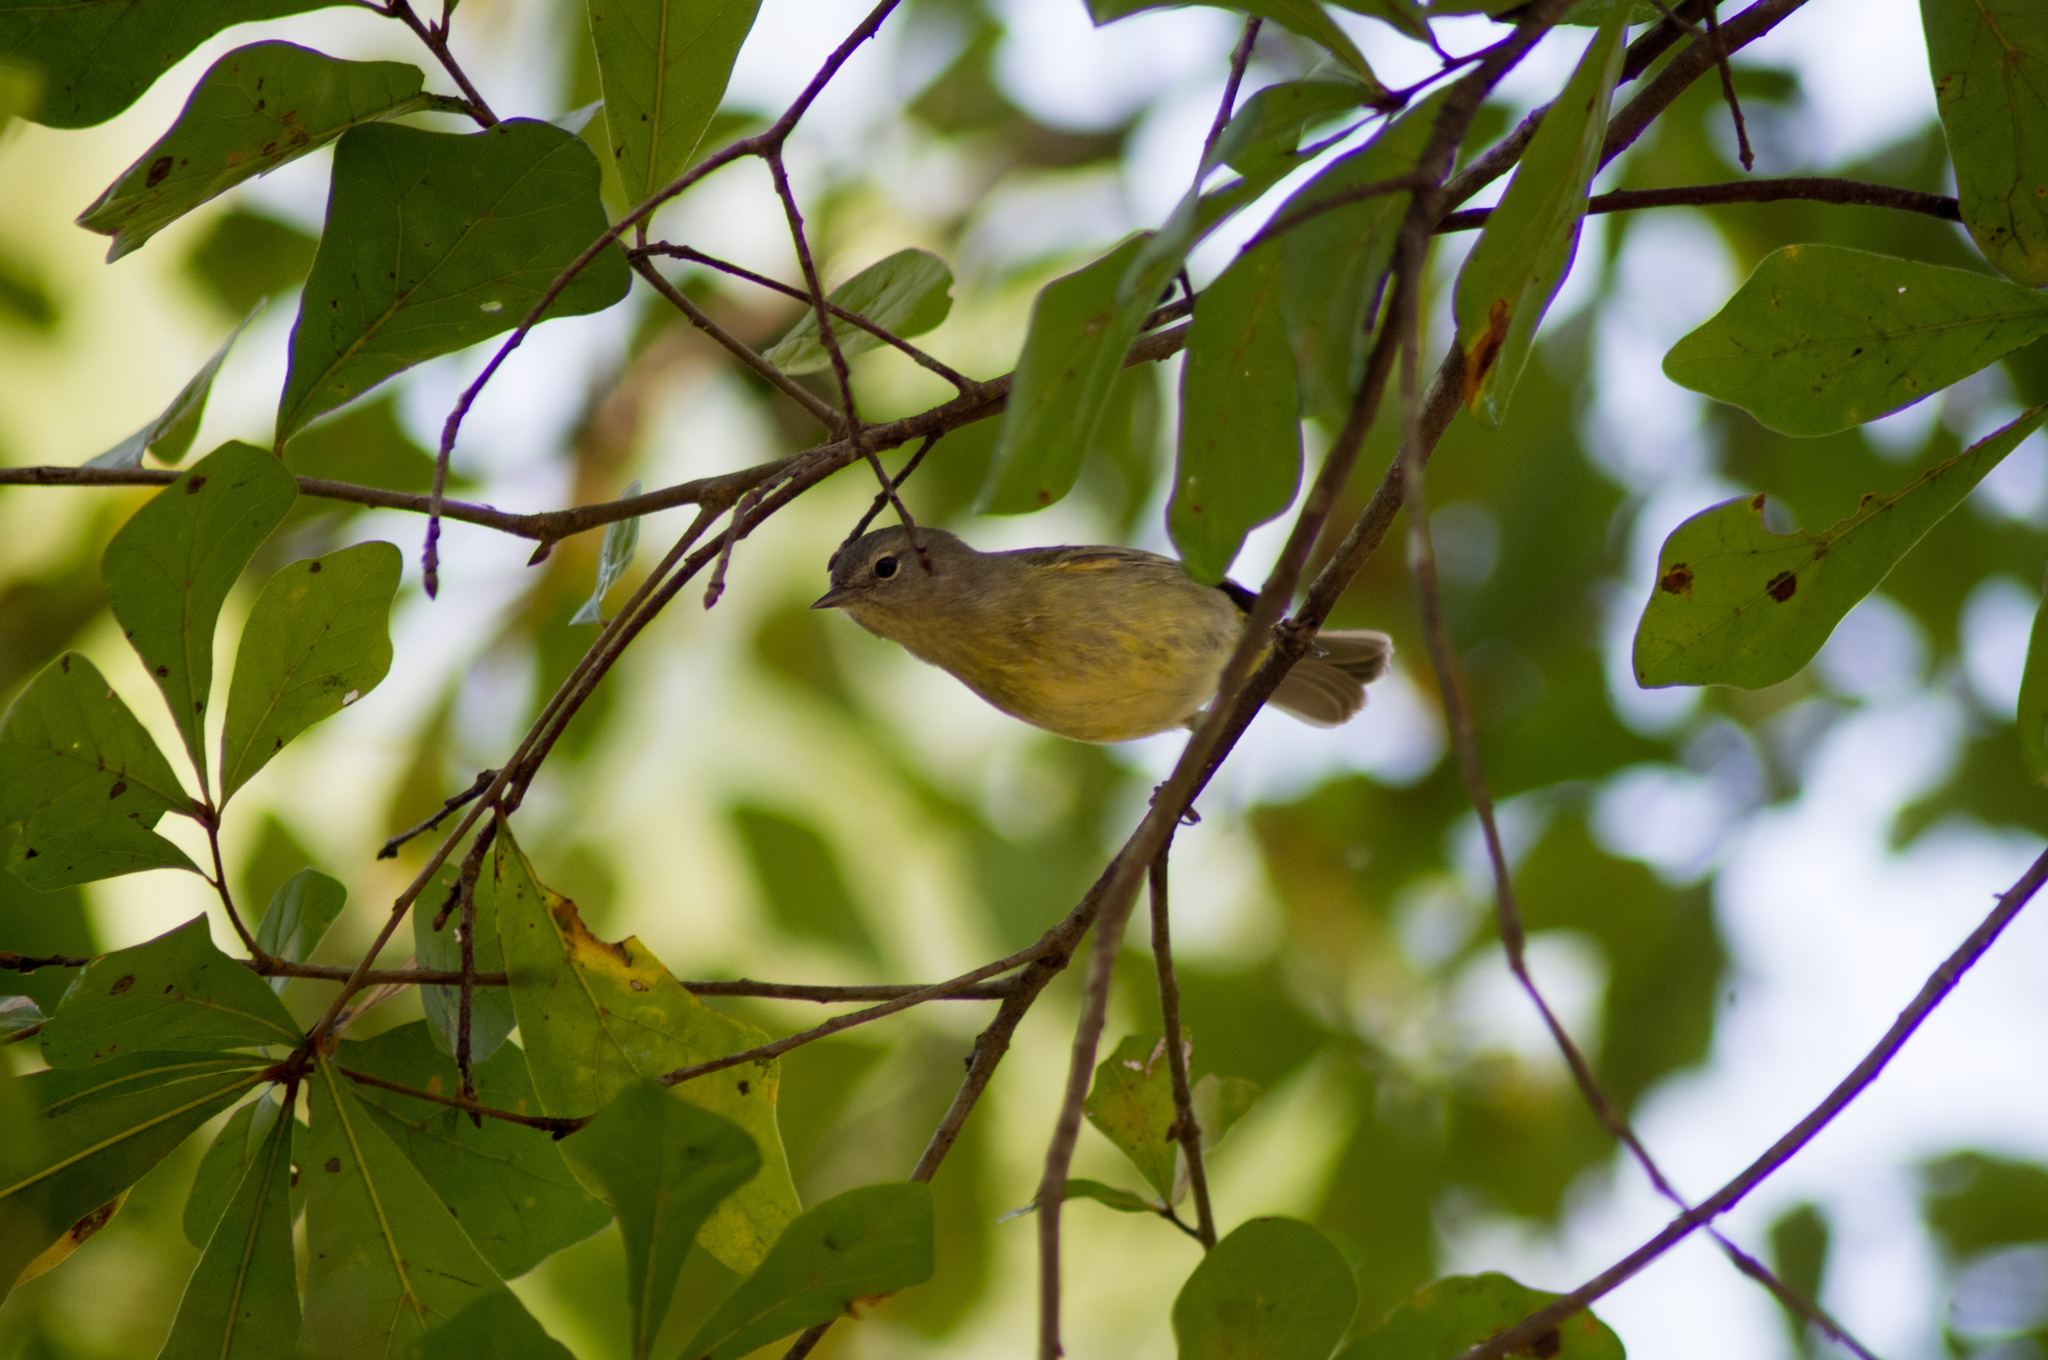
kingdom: Animalia
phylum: Chordata
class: Aves
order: Passeriformes
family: Parulidae
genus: Leiothlypis
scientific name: Leiothlypis celata
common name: Orange-crowned warbler
